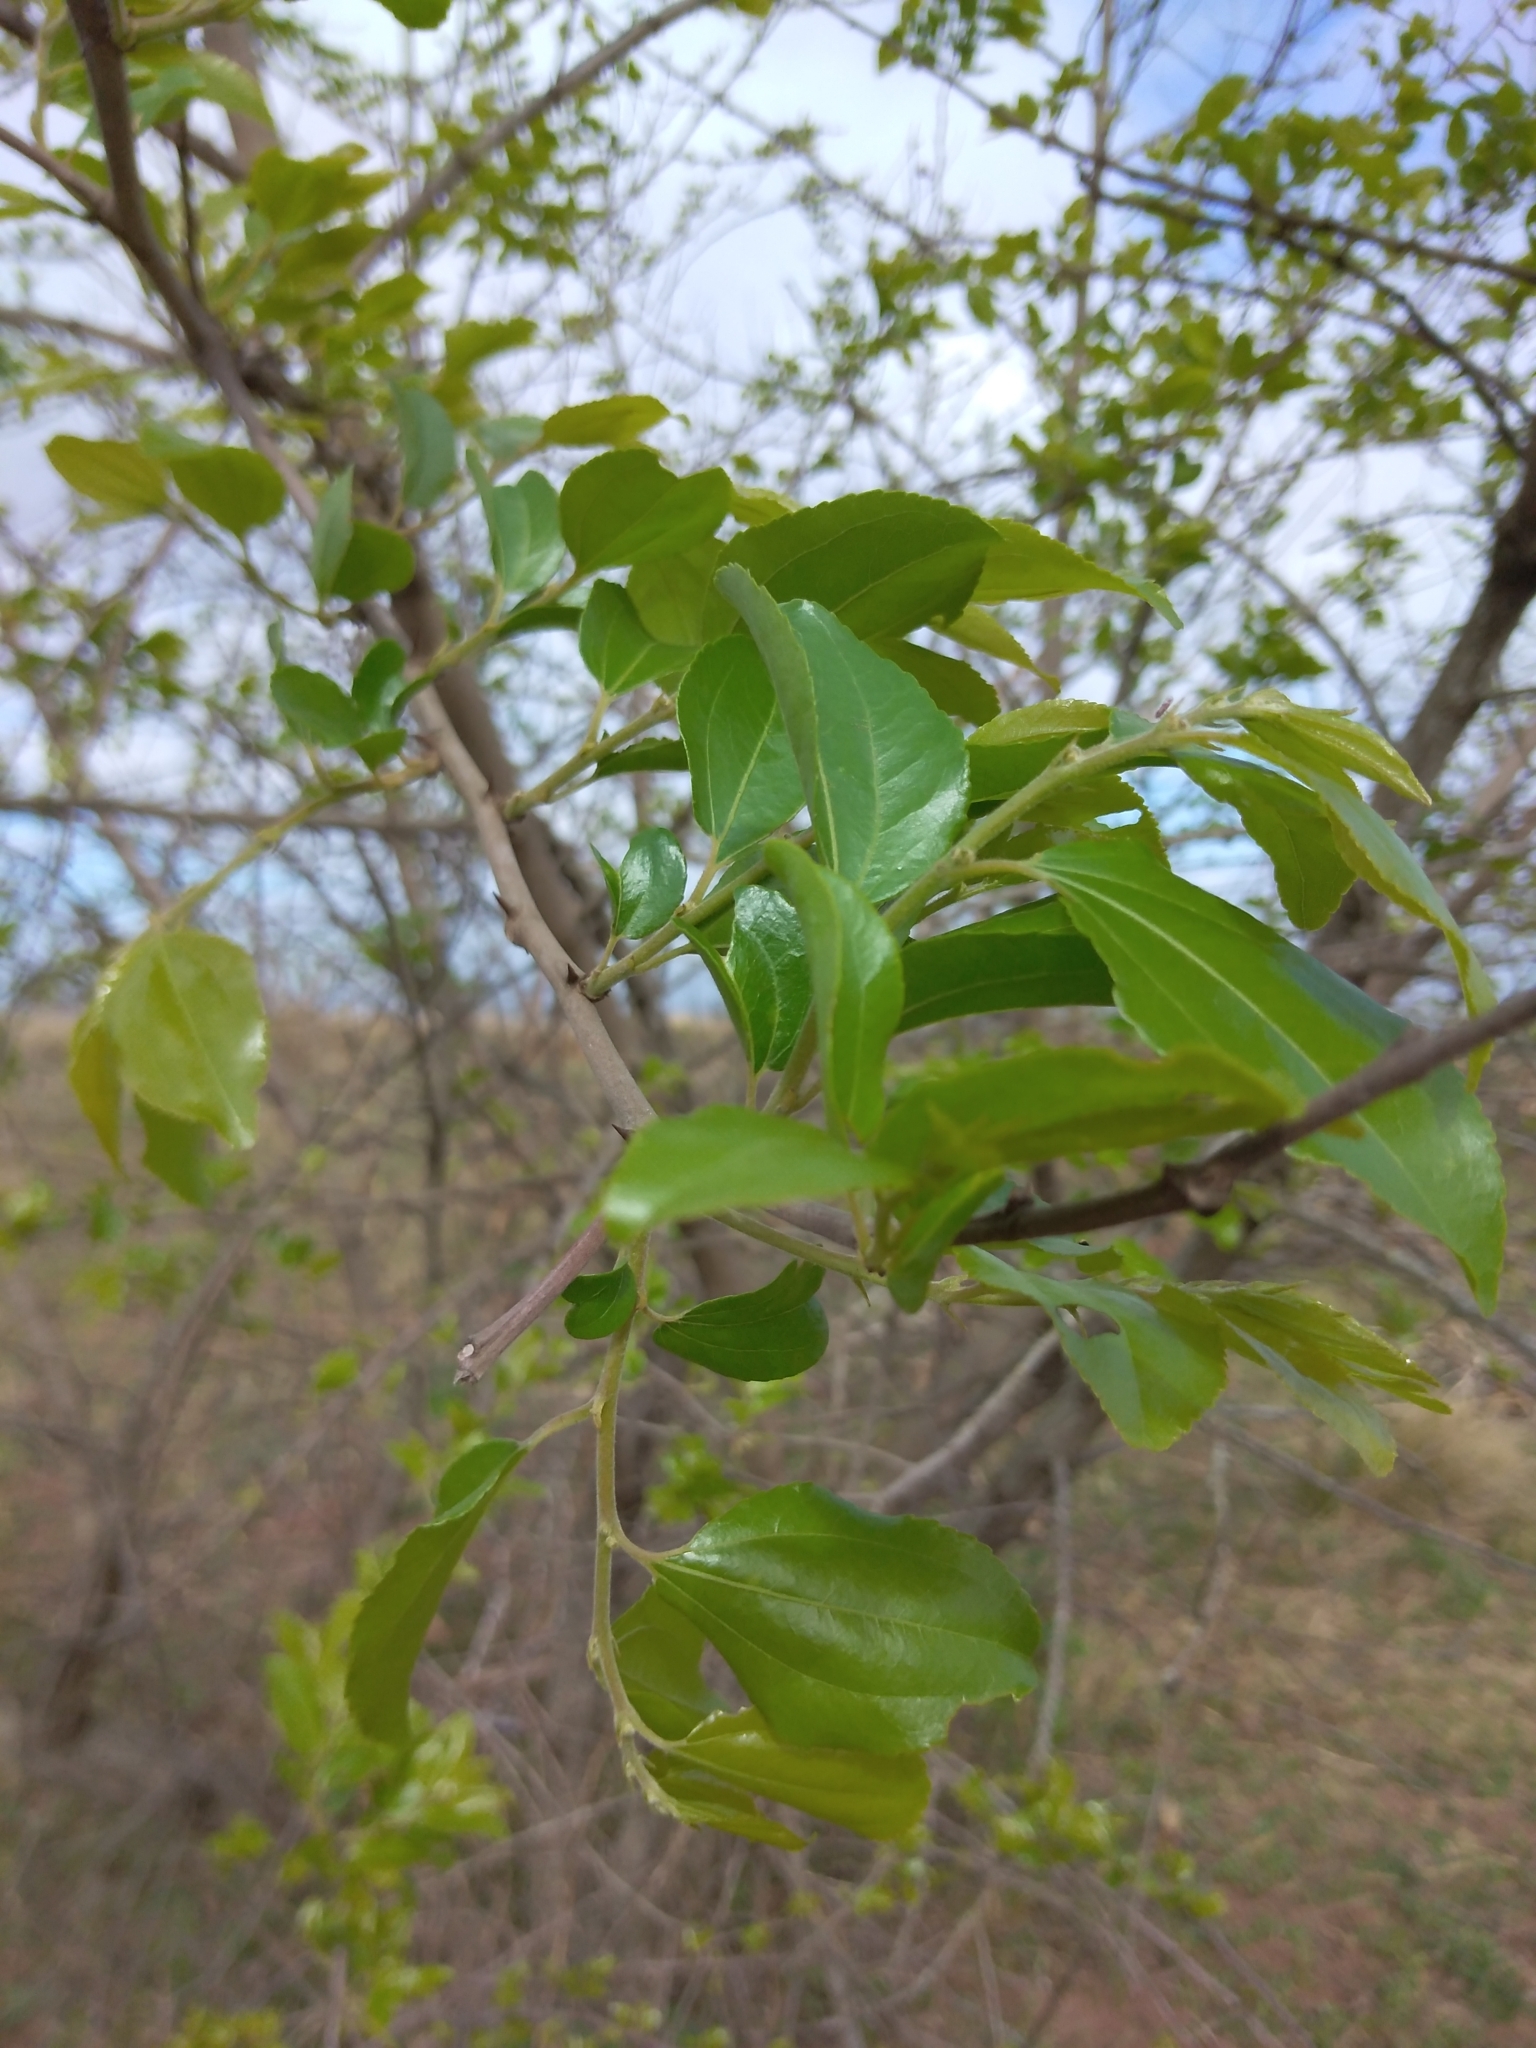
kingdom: Plantae
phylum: Tracheophyta
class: Magnoliopsida
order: Rosales
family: Rhamnaceae
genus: Ziziphus
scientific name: Ziziphus mucronata
